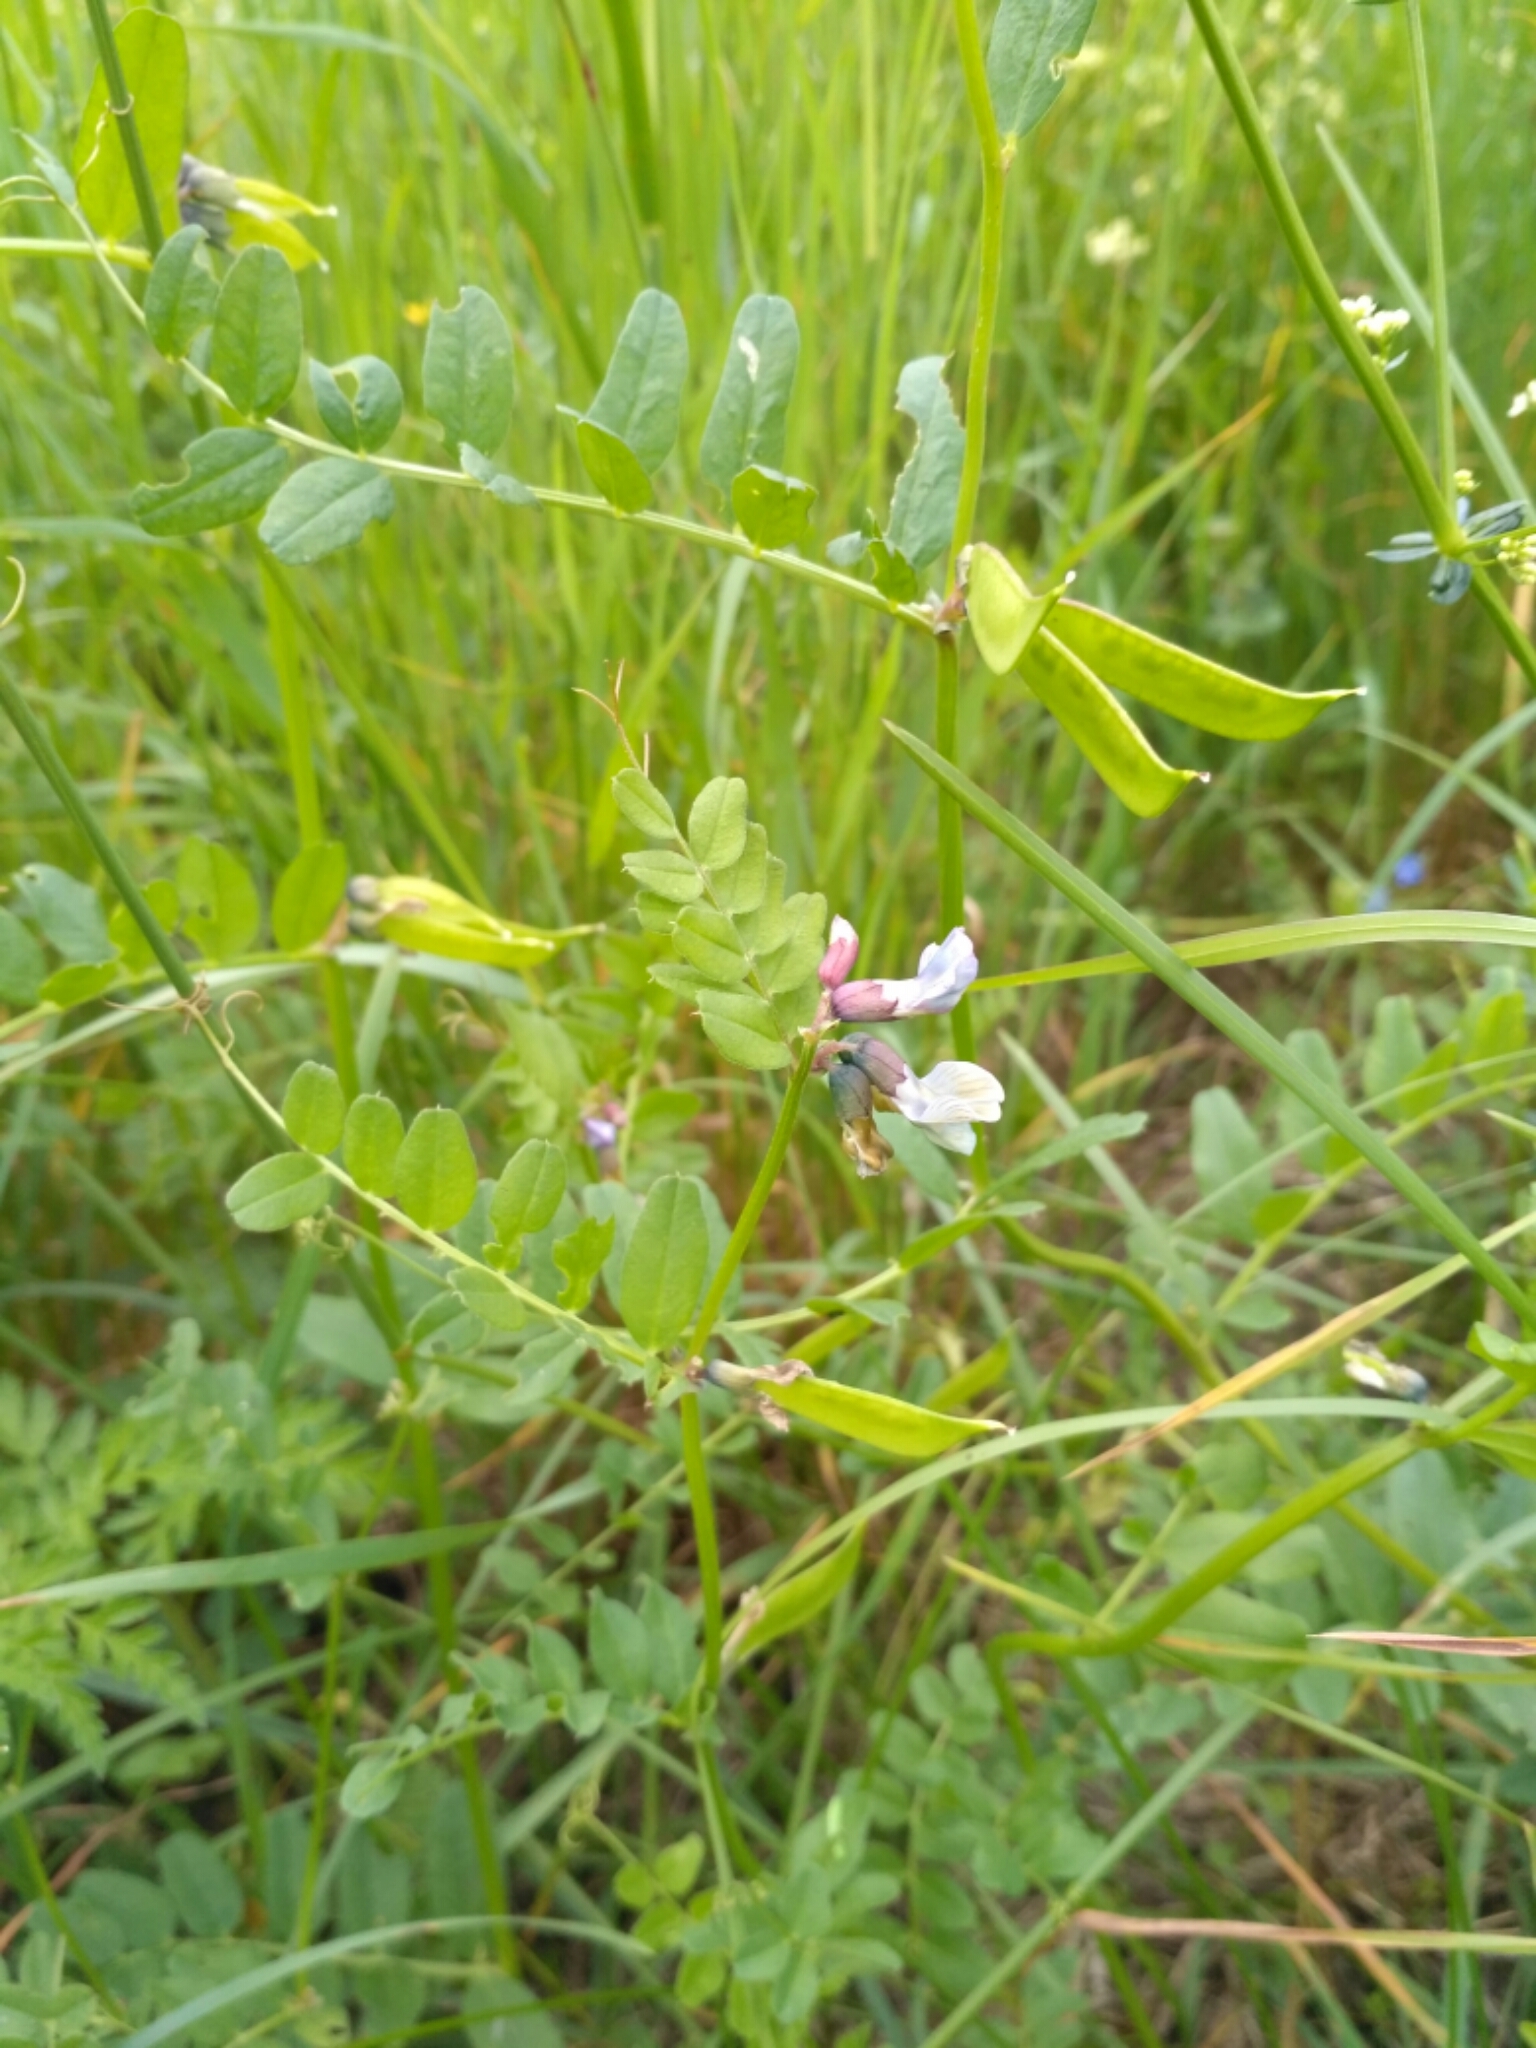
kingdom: Plantae
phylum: Tracheophyta
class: Magnoliopsida
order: Fabales
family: Fabaceae
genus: Vicia
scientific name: Vicia sepium
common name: Bush vetch
